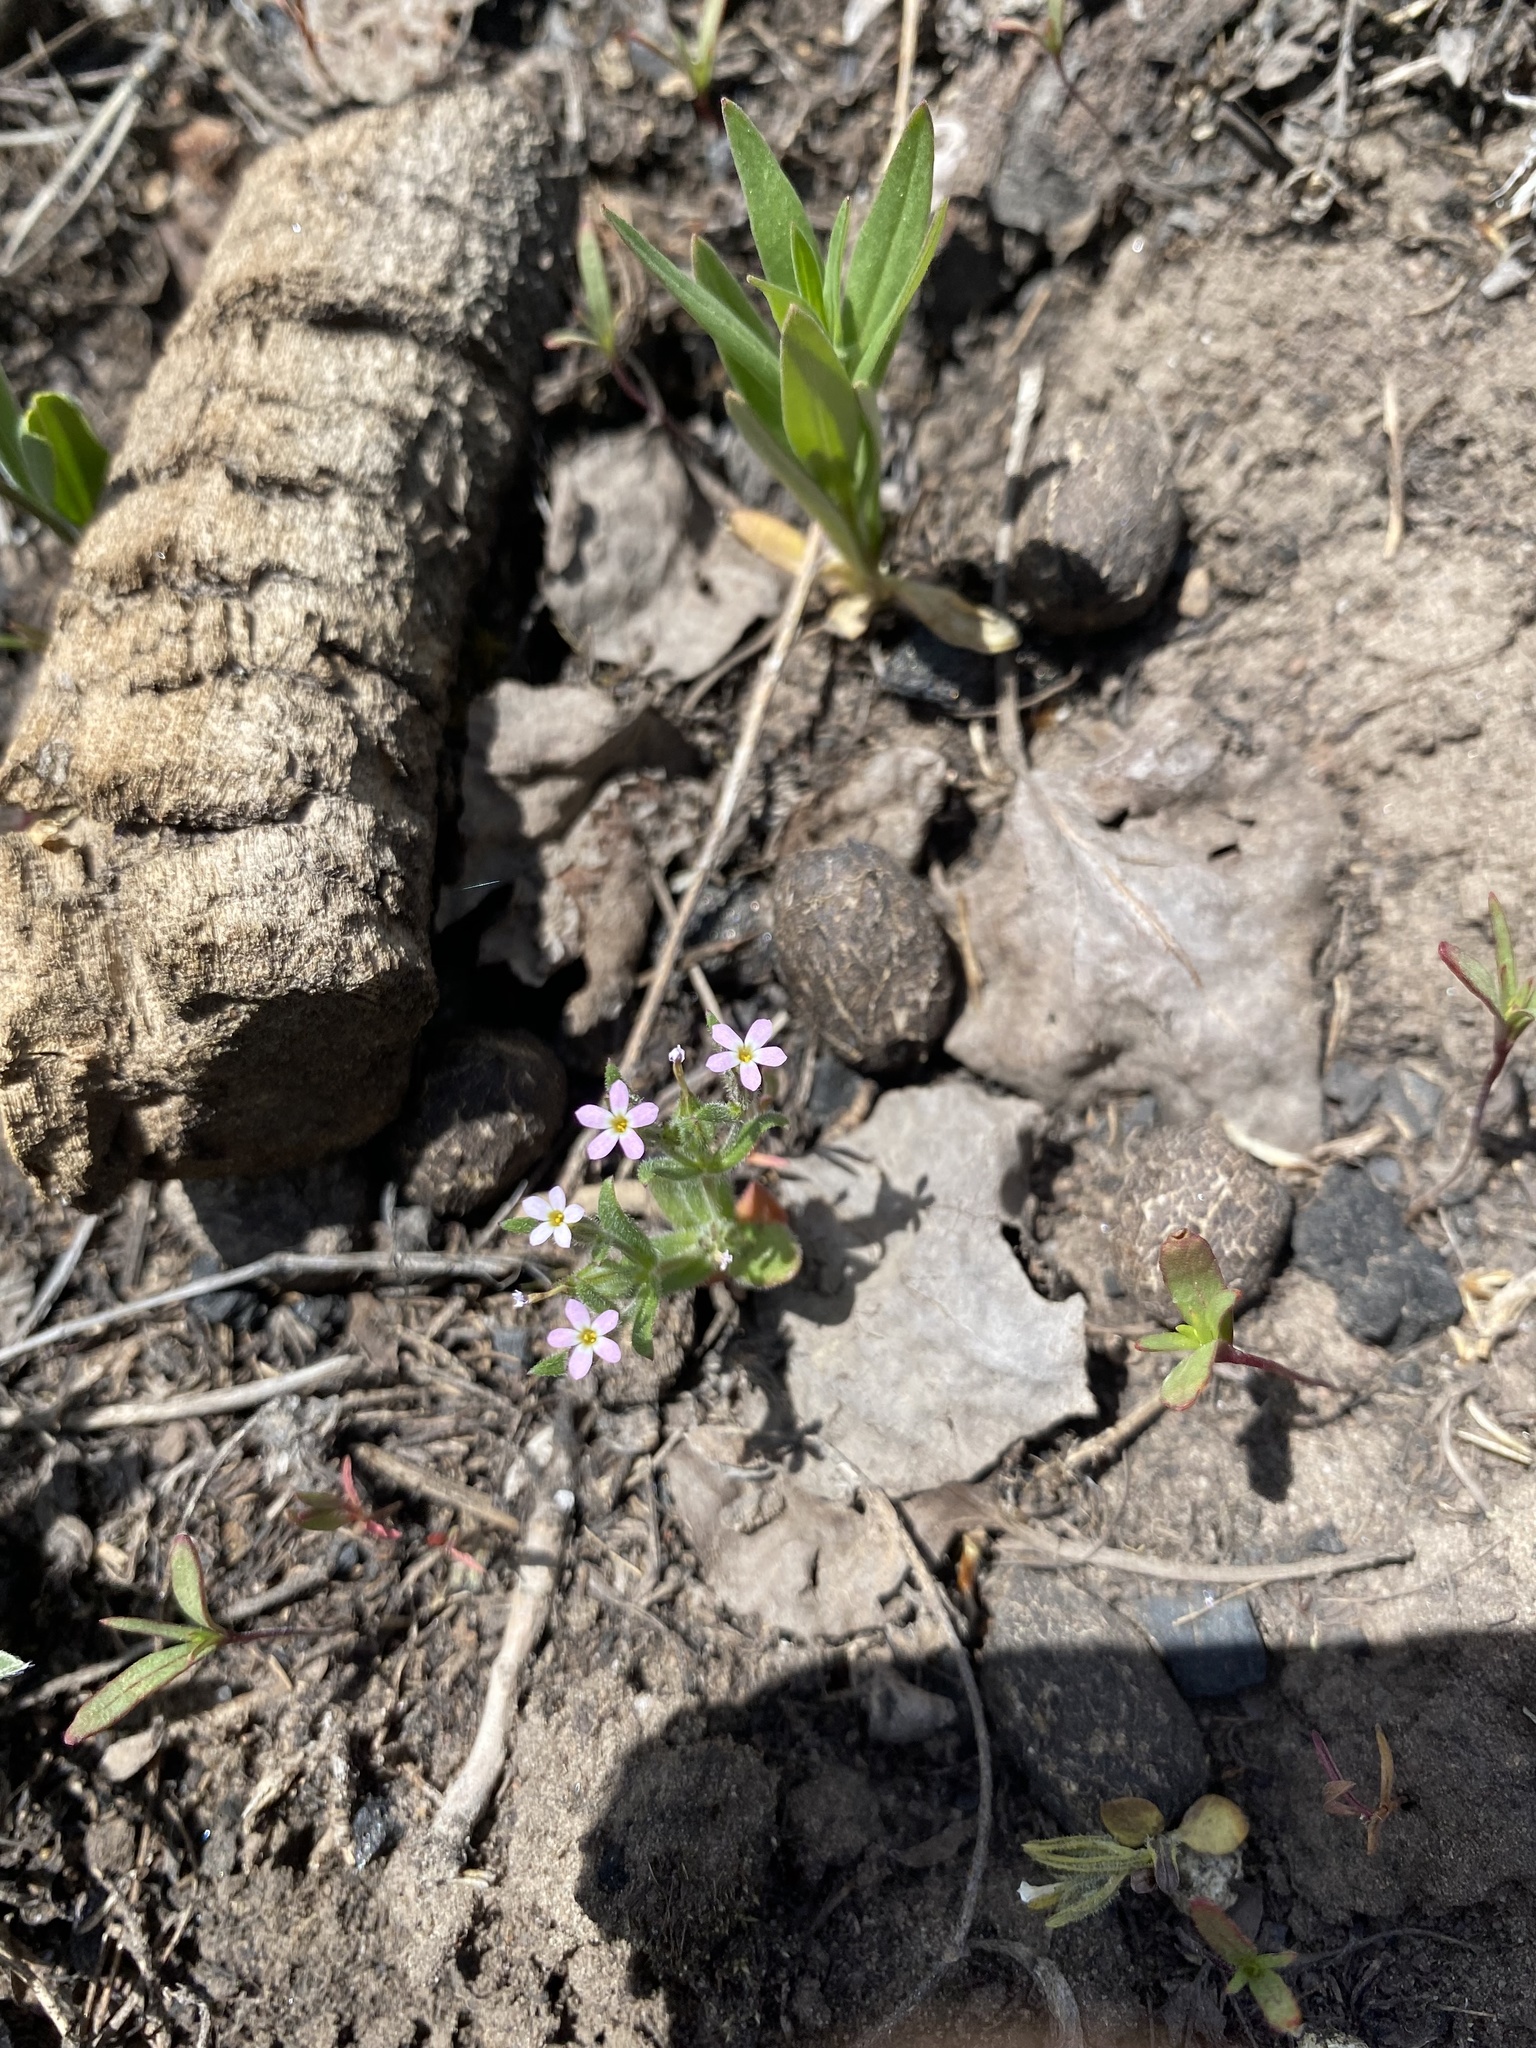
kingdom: Plantae
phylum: Tracheophyta
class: Magnoliopsida
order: Ericales
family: Polemoniaceae
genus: Phlox
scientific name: Phlox gracilis
